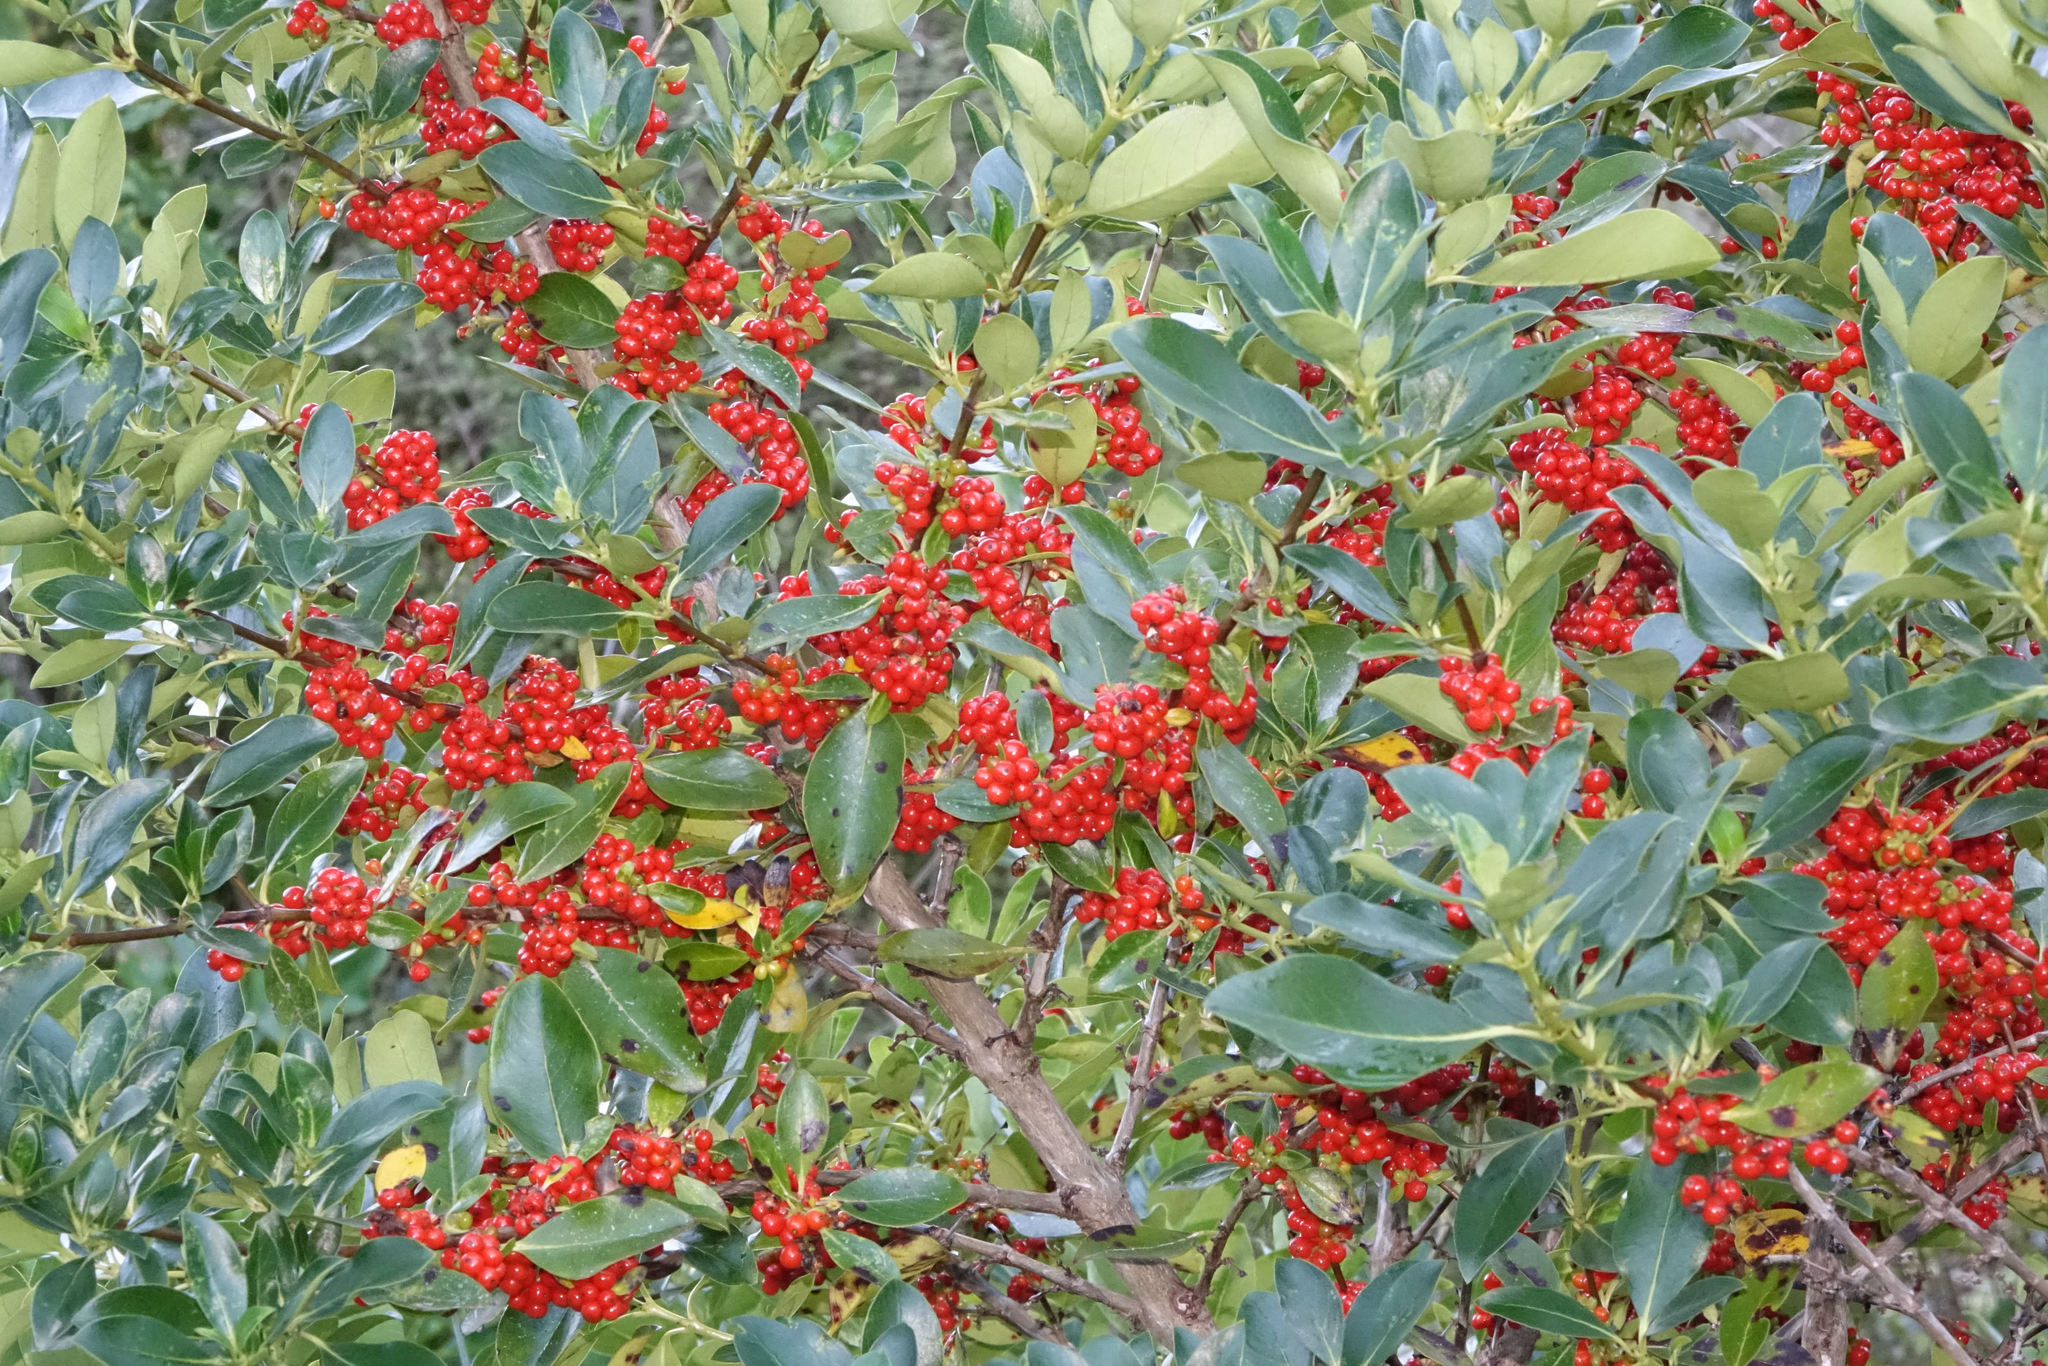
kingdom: Plantae
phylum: Tracheophyta
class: Magnoliopsida
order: Gentianales
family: Rubiaceae
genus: Coprosma
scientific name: Coprosma robusta
